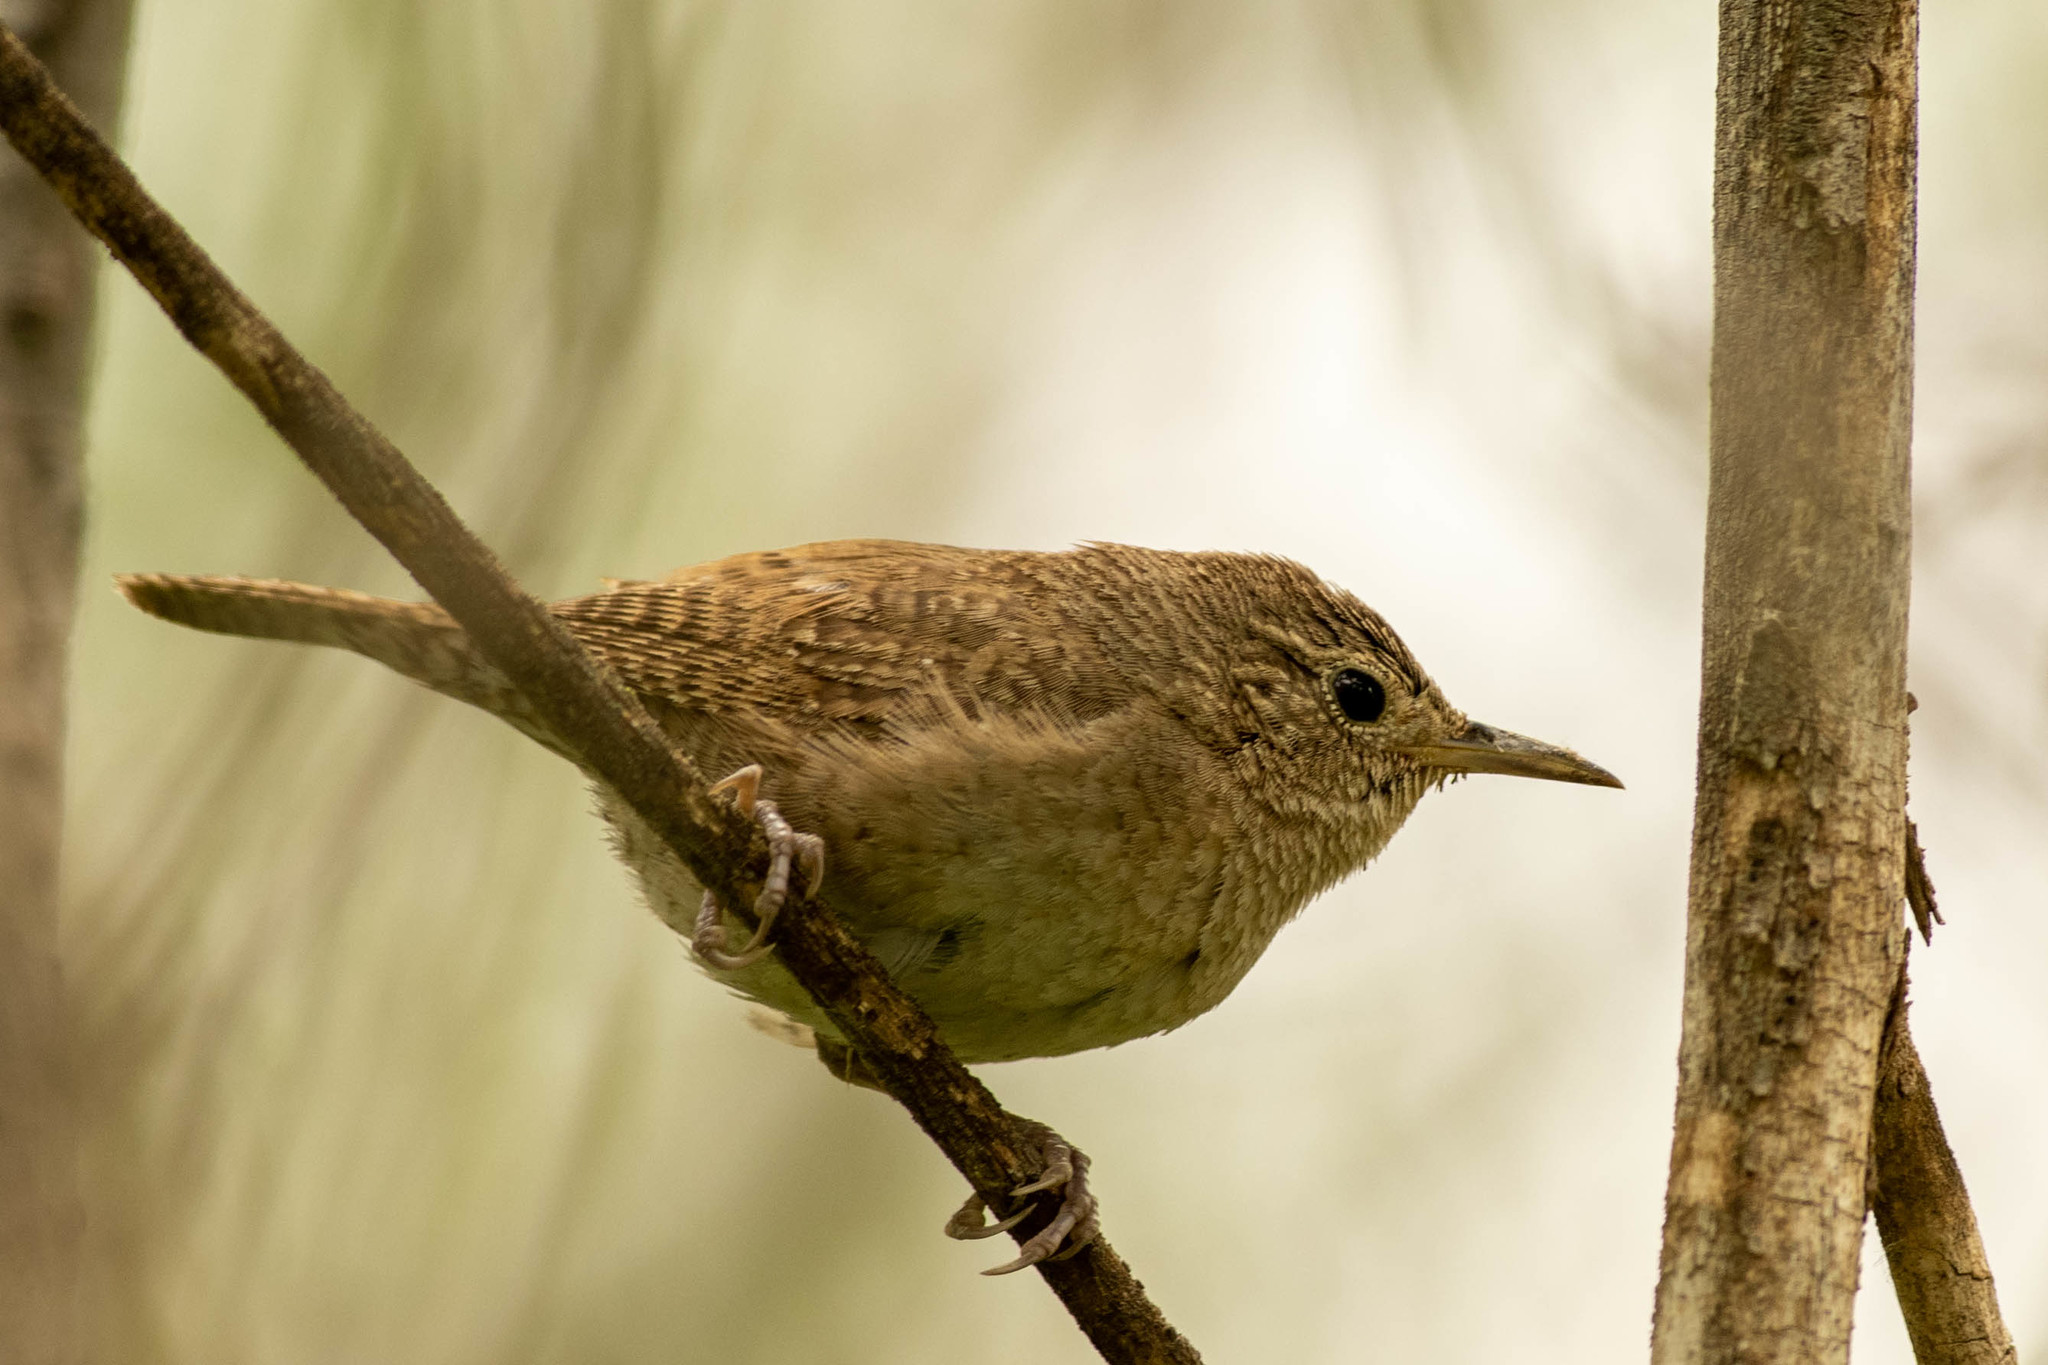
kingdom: Animalia
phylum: Chordata
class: Aves
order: Passeriformes
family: Troglodytidae
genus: Troglodytes
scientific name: Troglodytes aedon
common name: House wren
